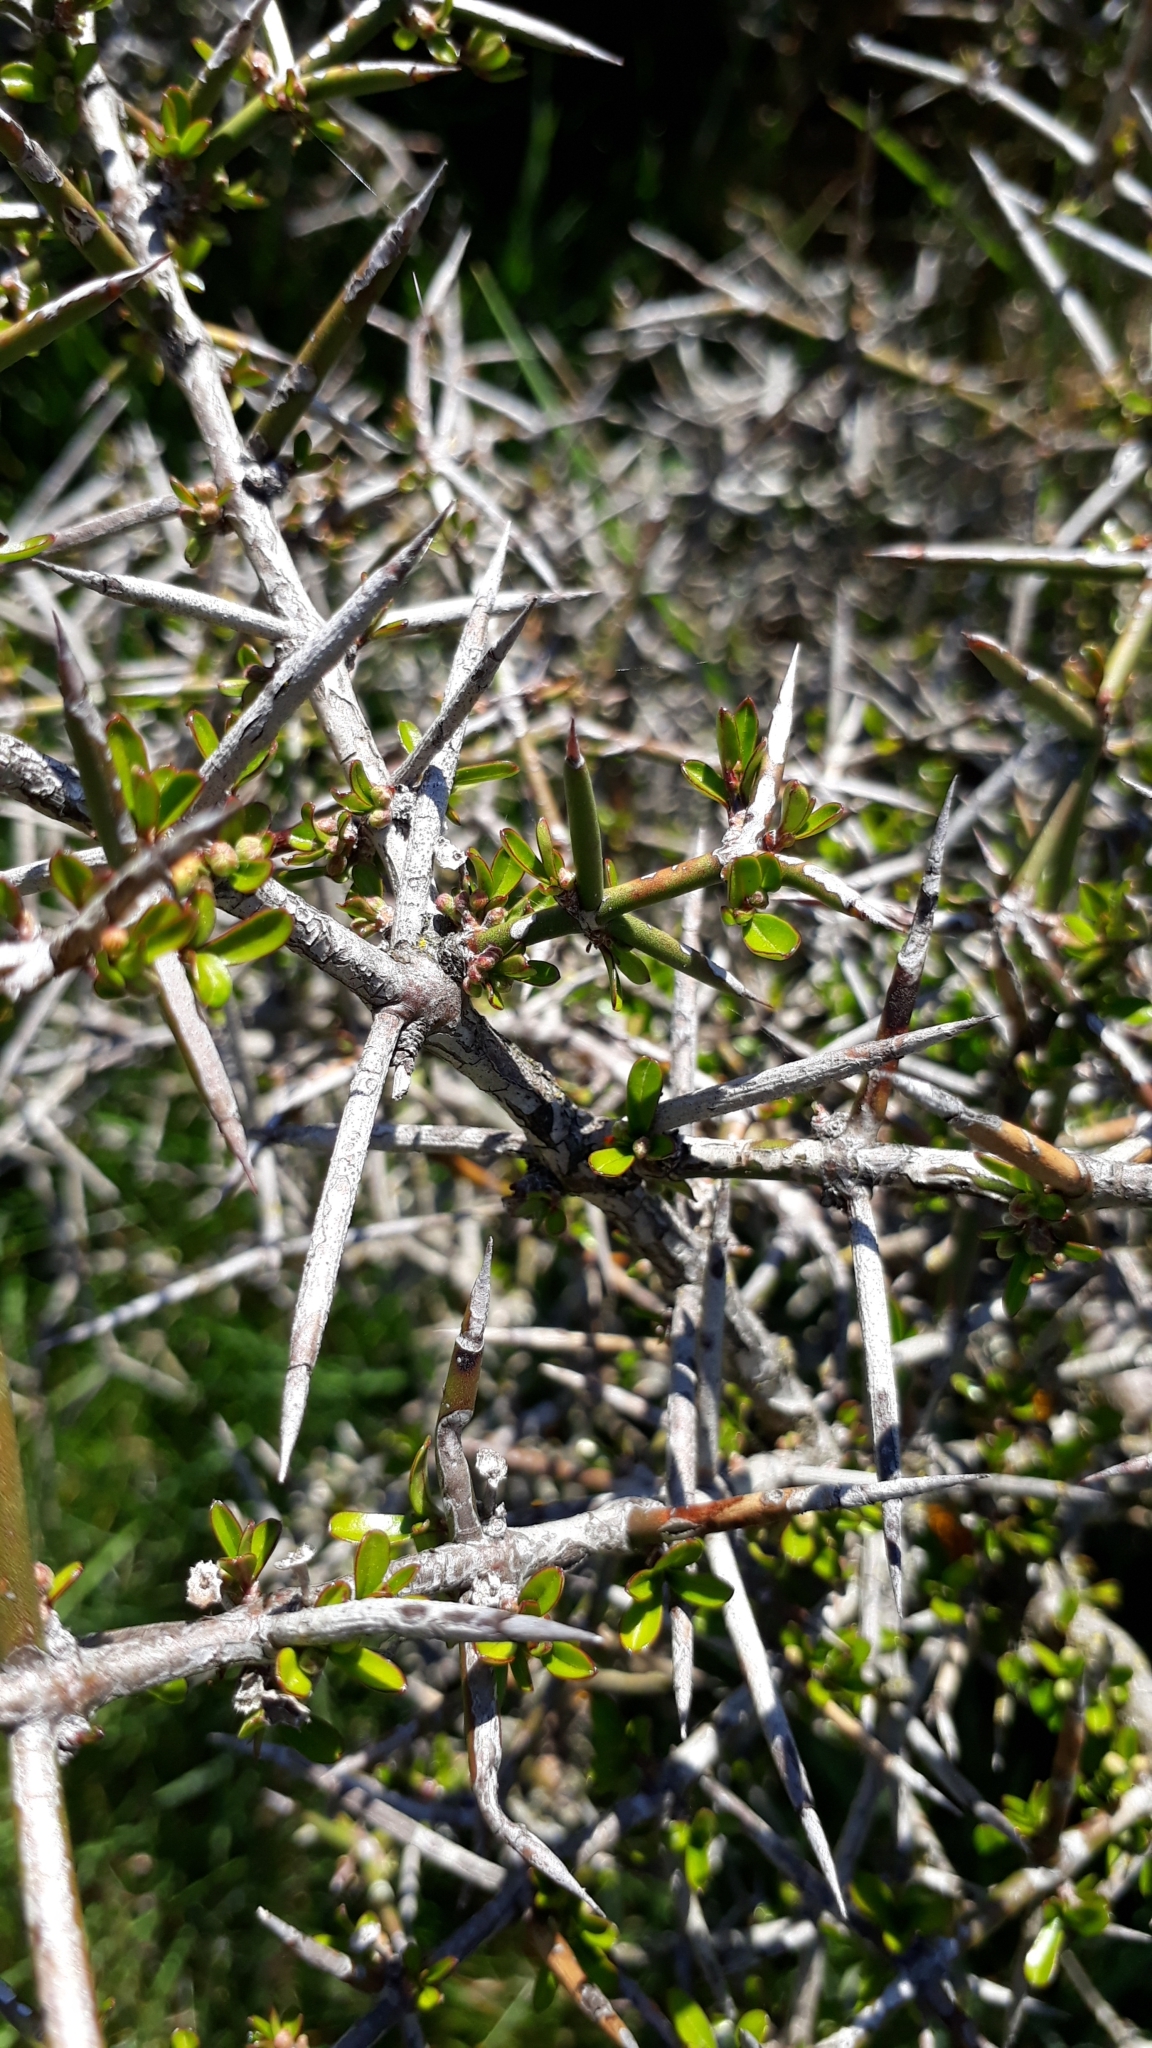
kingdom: Plantae
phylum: Tracheophyta
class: Magnoliopsida
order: Rosales
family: Rhamnaceae
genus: Discaria
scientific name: Discaria toumatou
